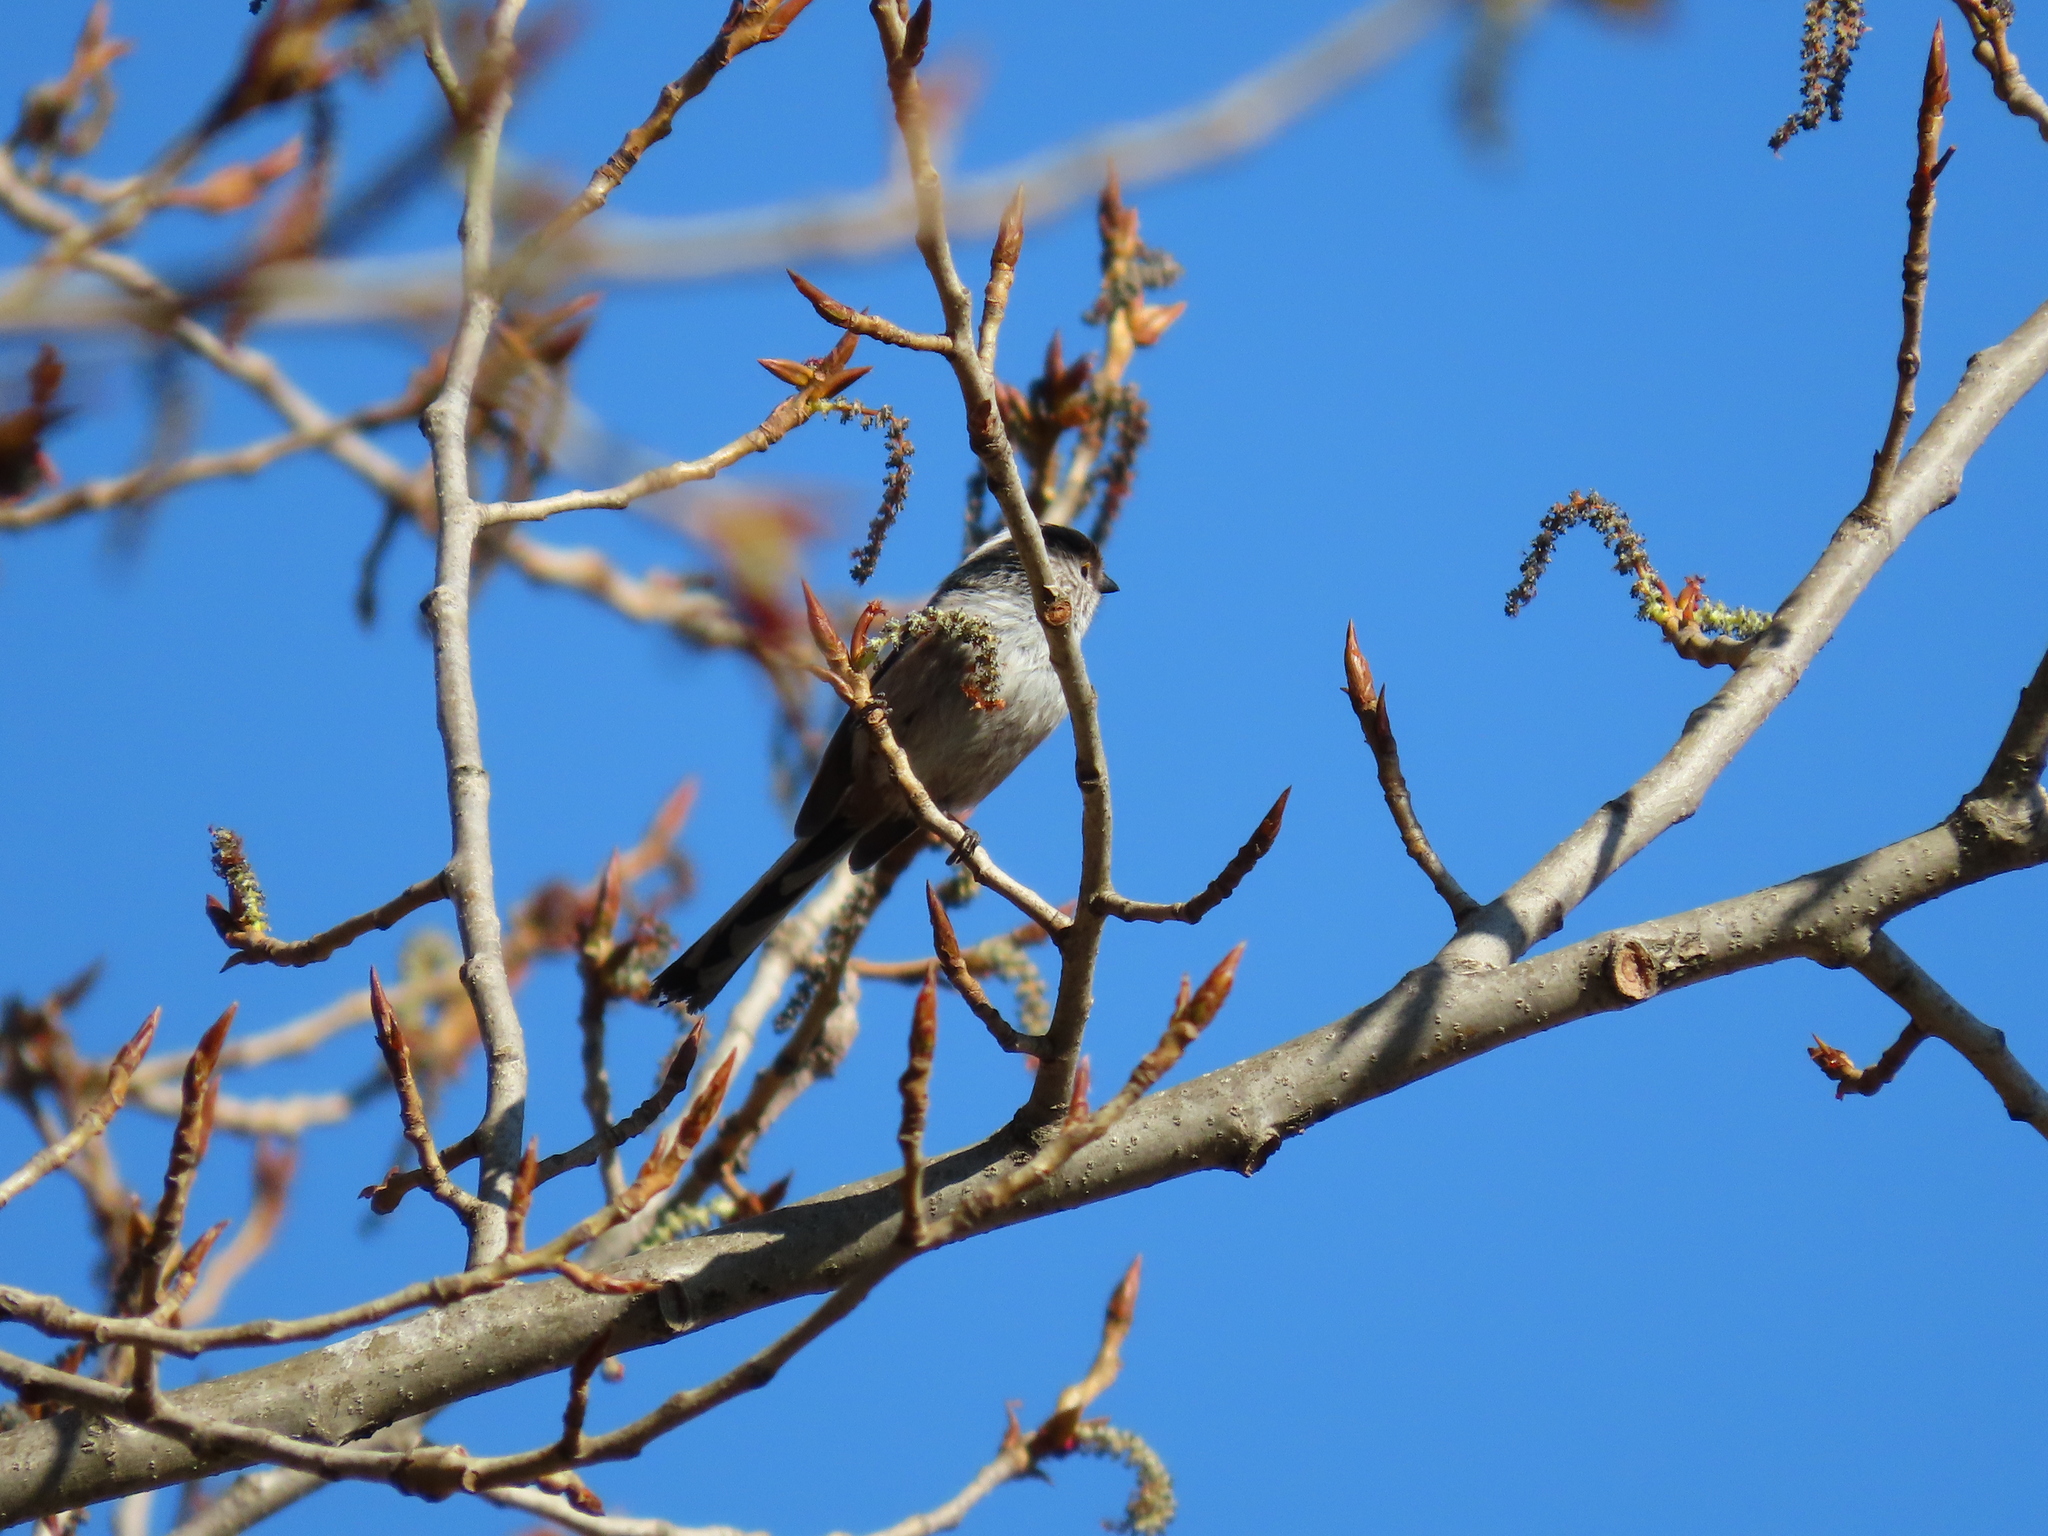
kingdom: Animalia
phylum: Chordata
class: Aves
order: Passeriformes
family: Aegithalidae
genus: Aegithalos
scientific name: Aegithalos caudatus
